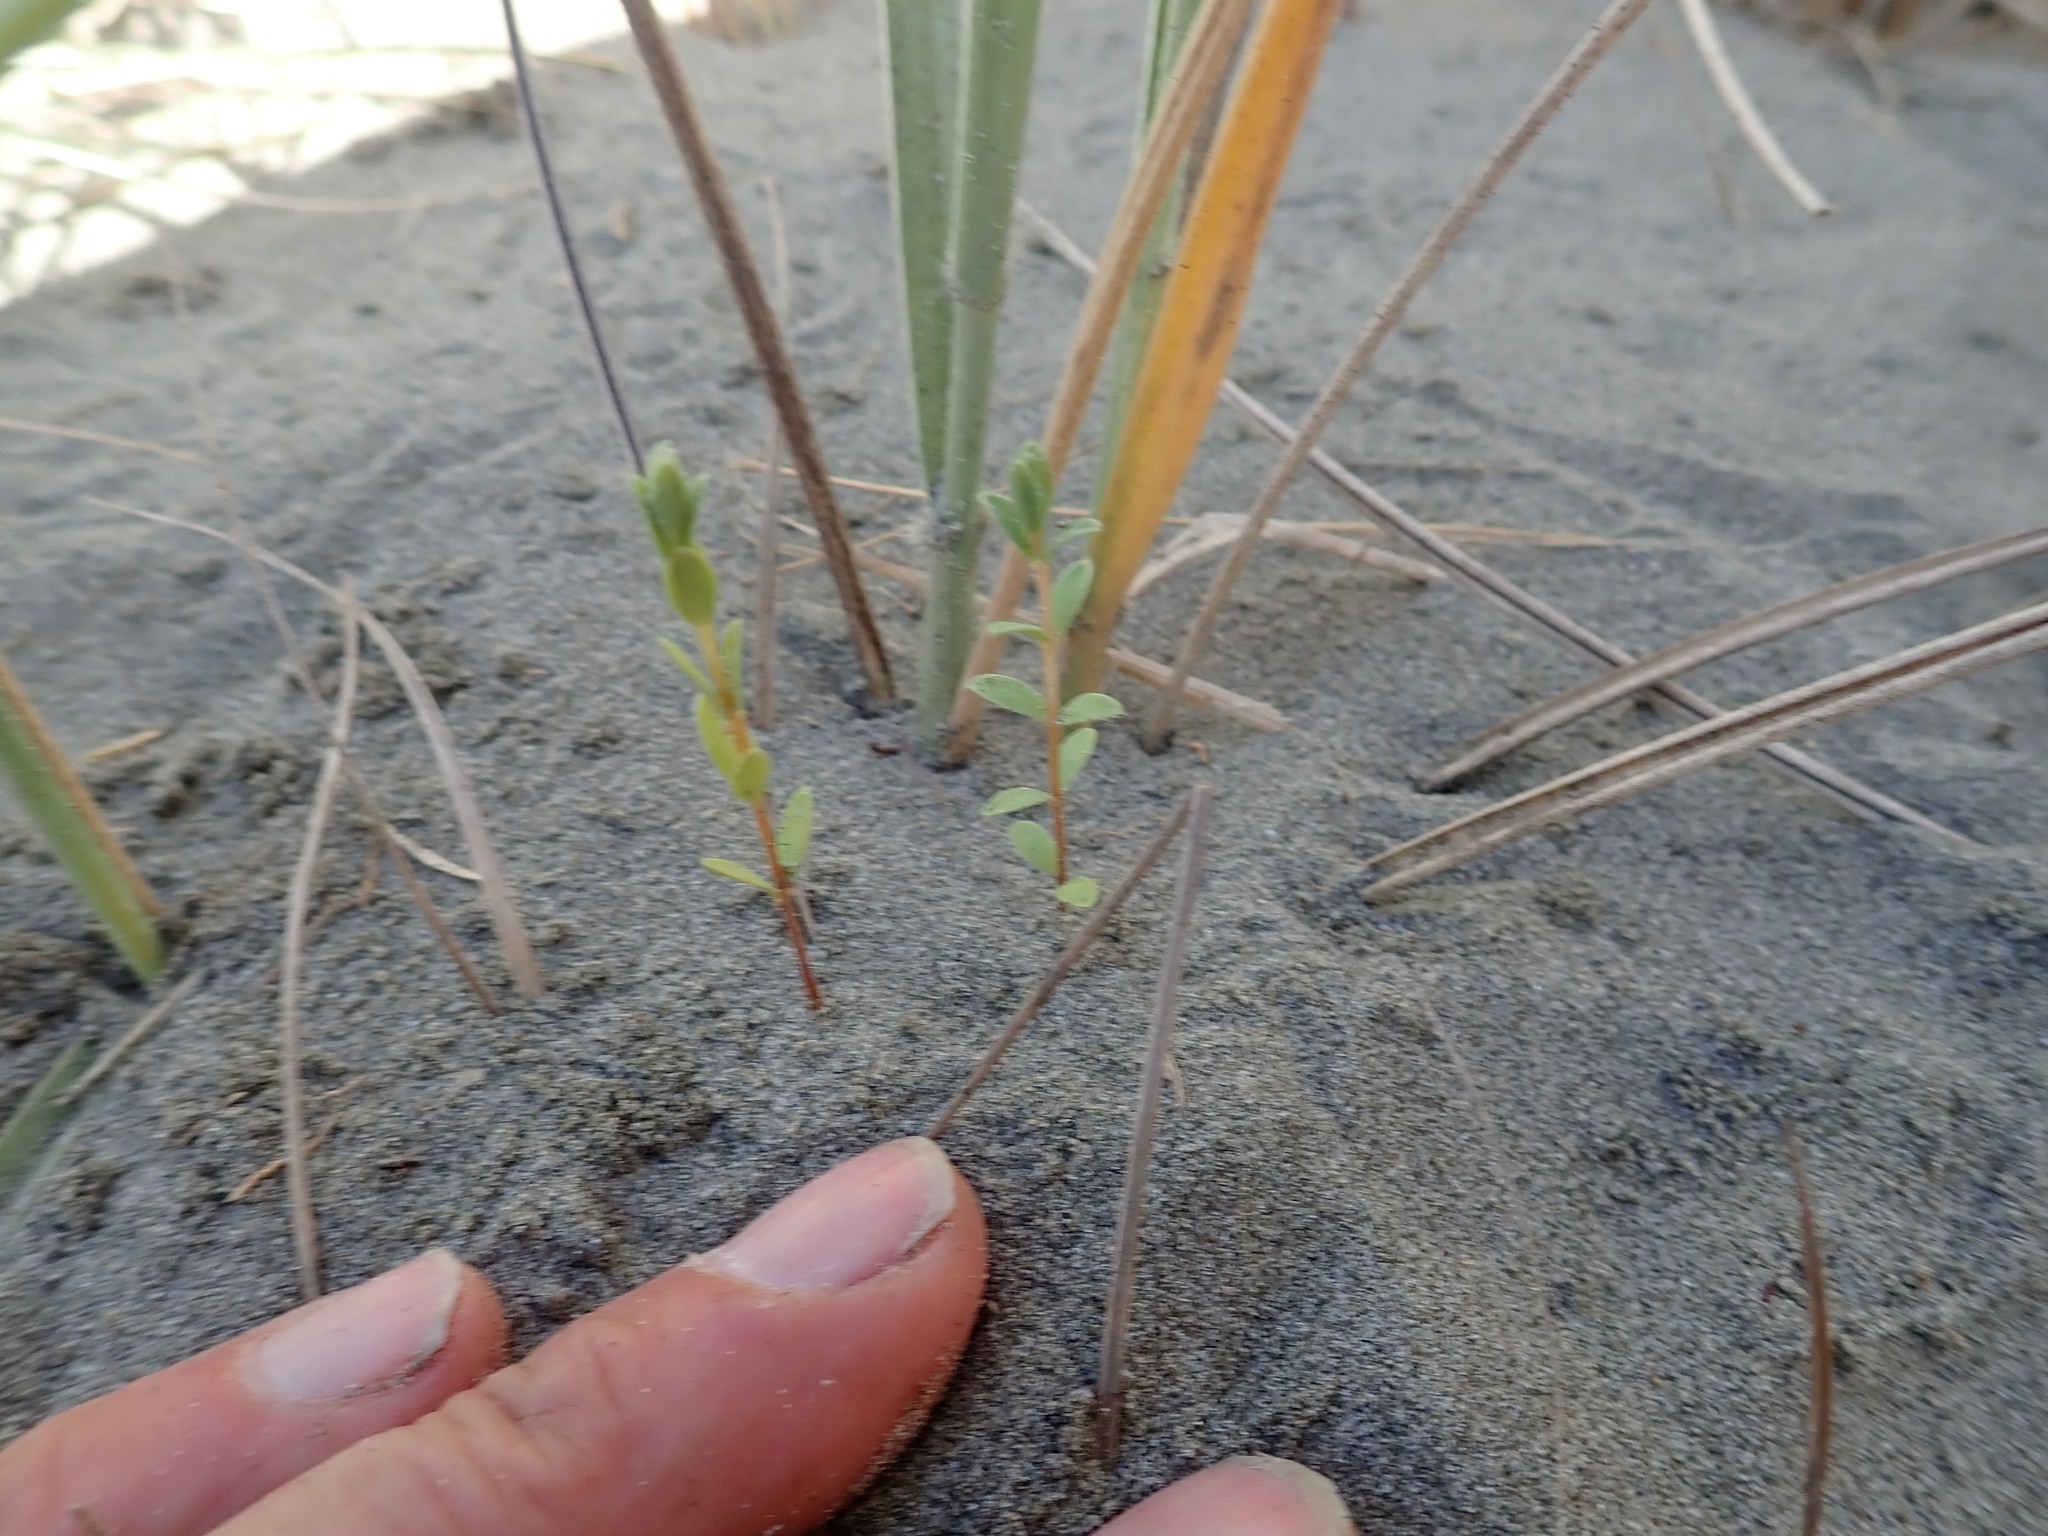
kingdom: Plantae
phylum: Tracheophyta
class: Magnoliopsida
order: Malvales
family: Thymelaeaceae
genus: Pimelea
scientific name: Pimelea villosa
